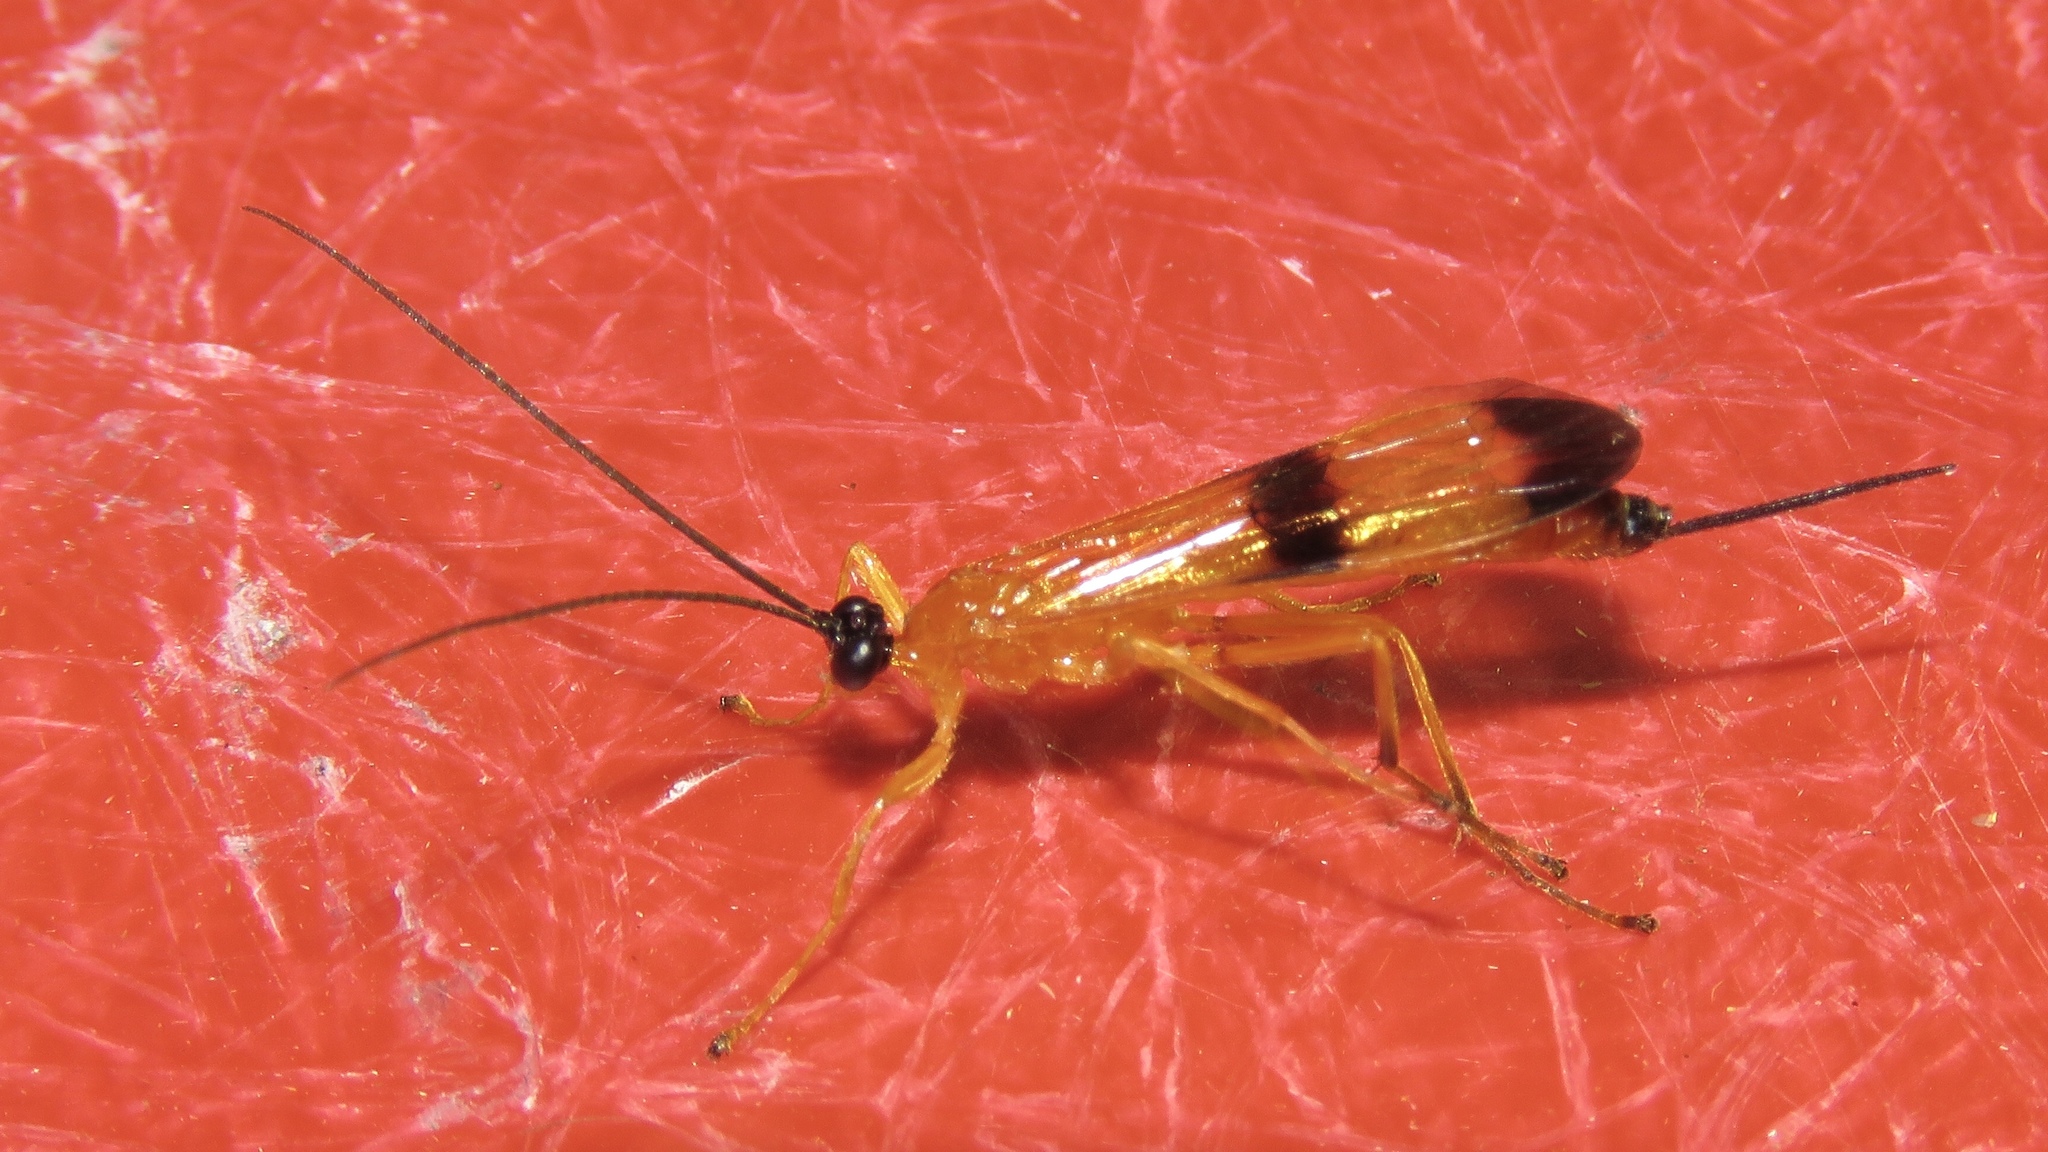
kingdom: Animalia
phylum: Arthropoda
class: Insecta
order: Hymenoptera
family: Ichneumonidae
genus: Acrotaphus
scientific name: Acrotaphus wiltii
